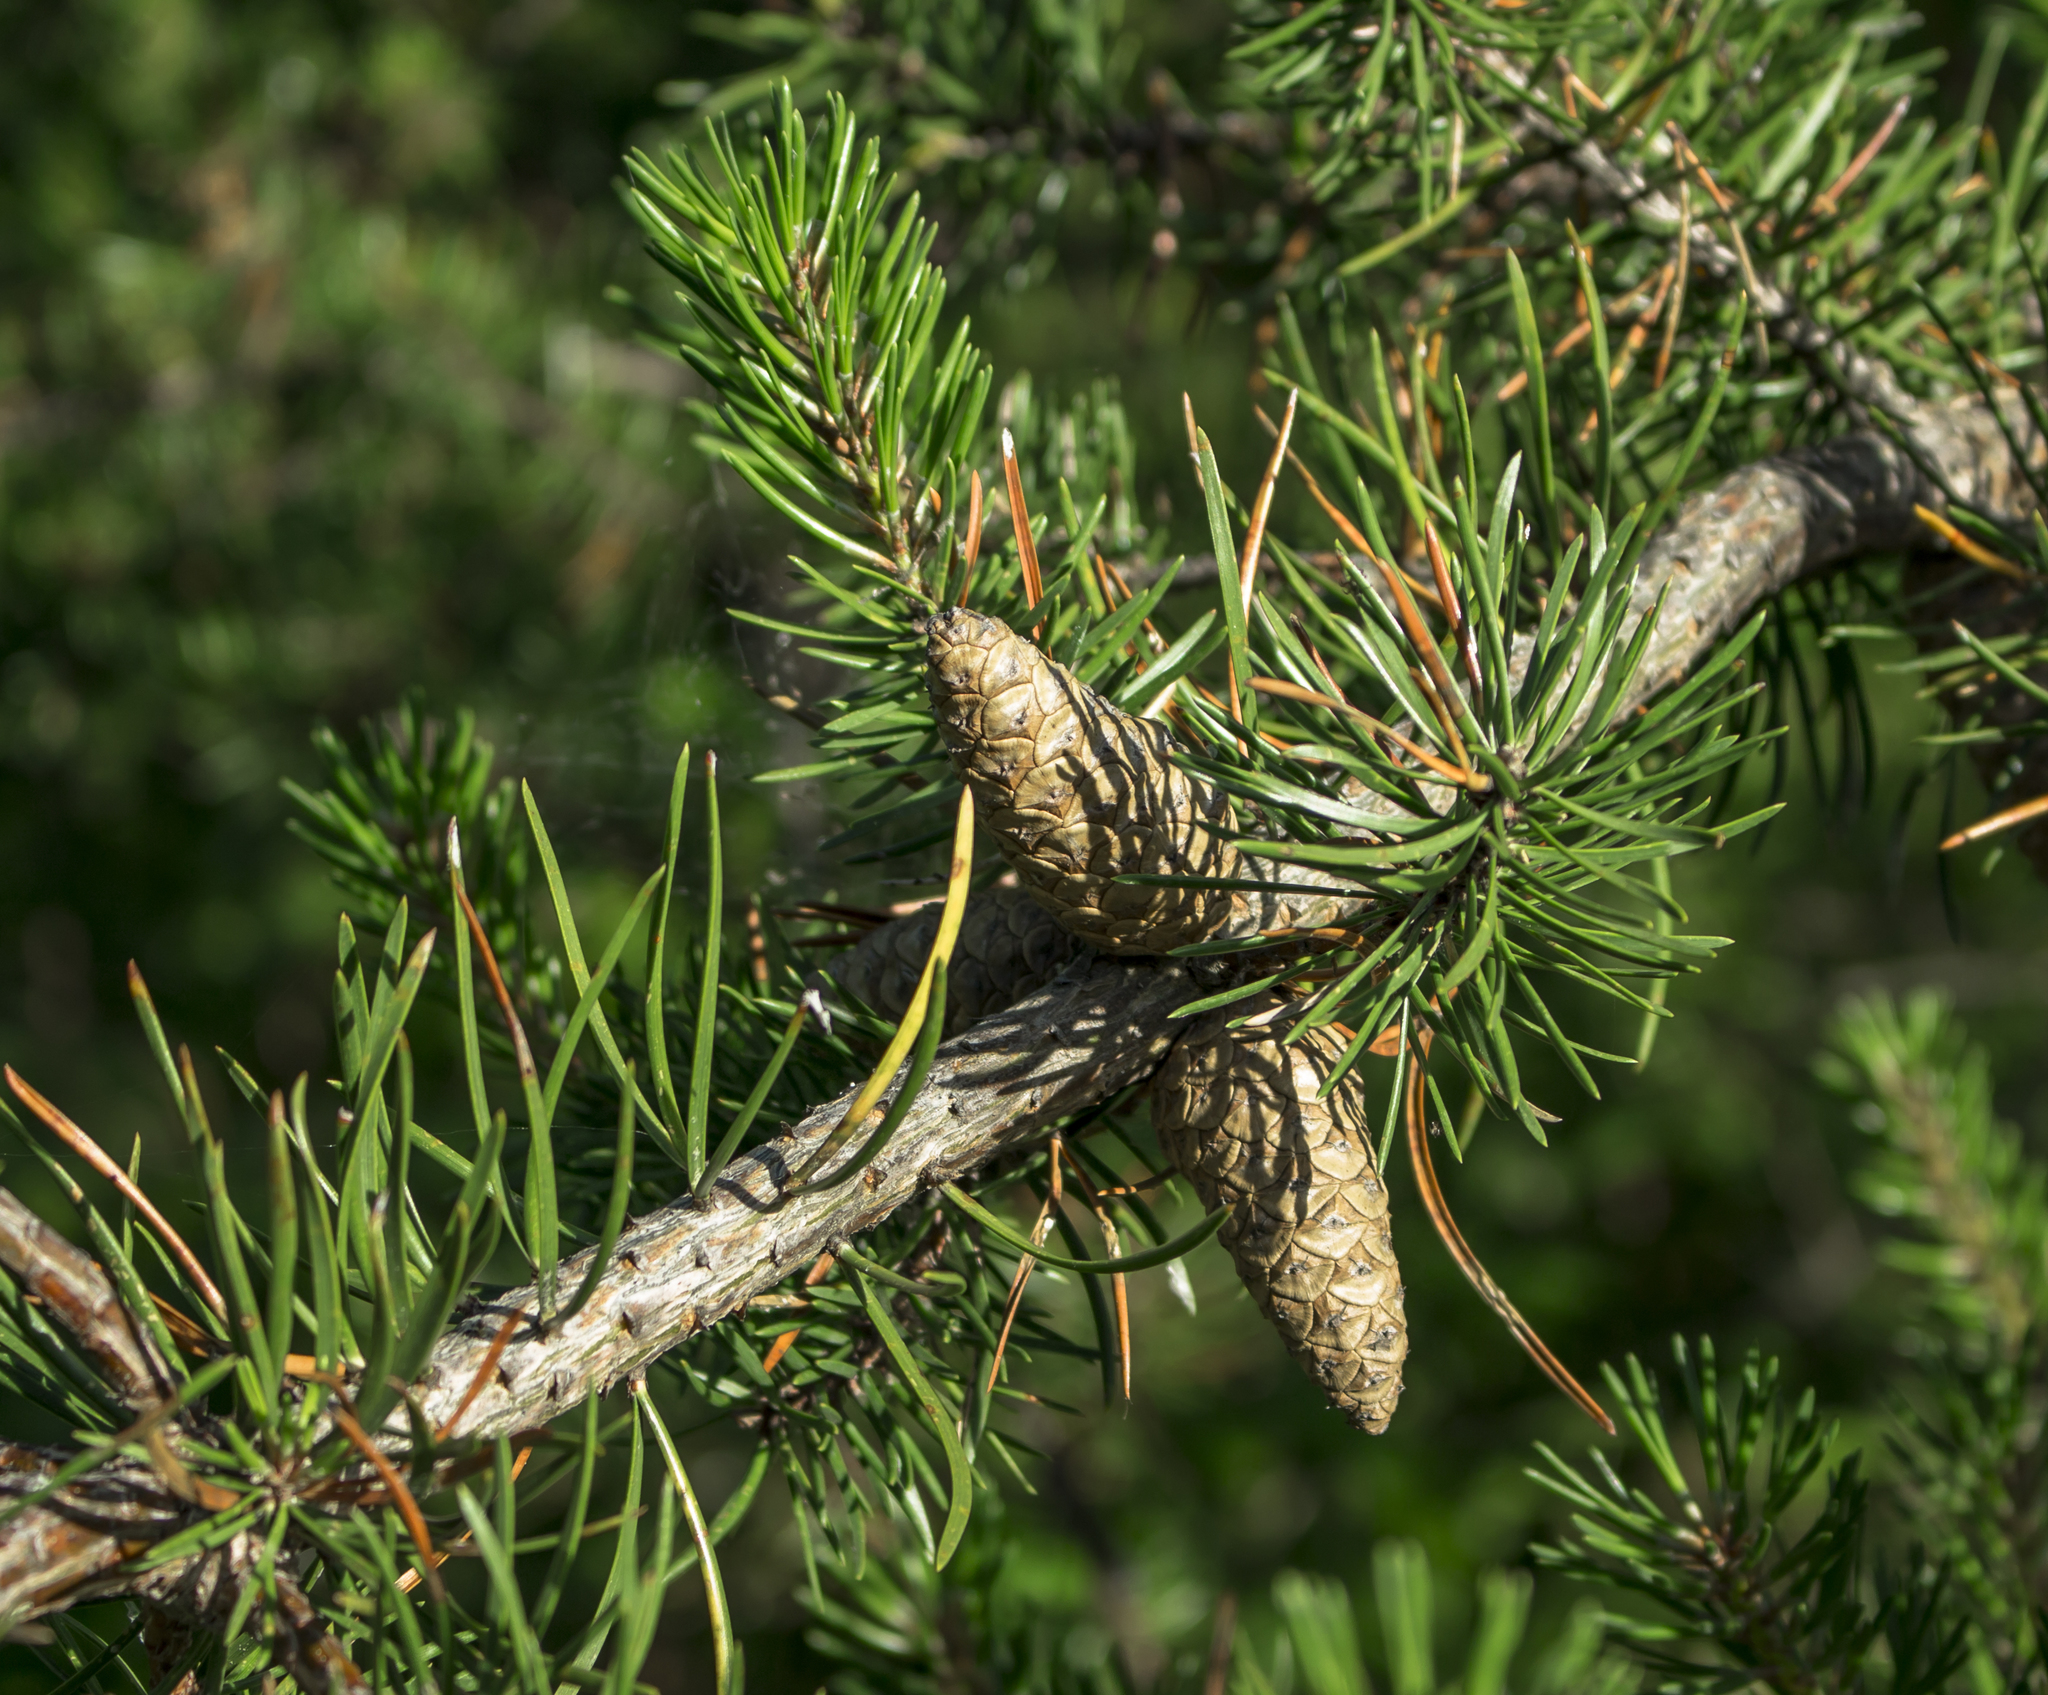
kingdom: Plantae
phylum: Tracheophyta
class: Pinopsida
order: Pinales
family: Pinaceae
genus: Pinus
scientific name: Pinus banksiana
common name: Jack pine
